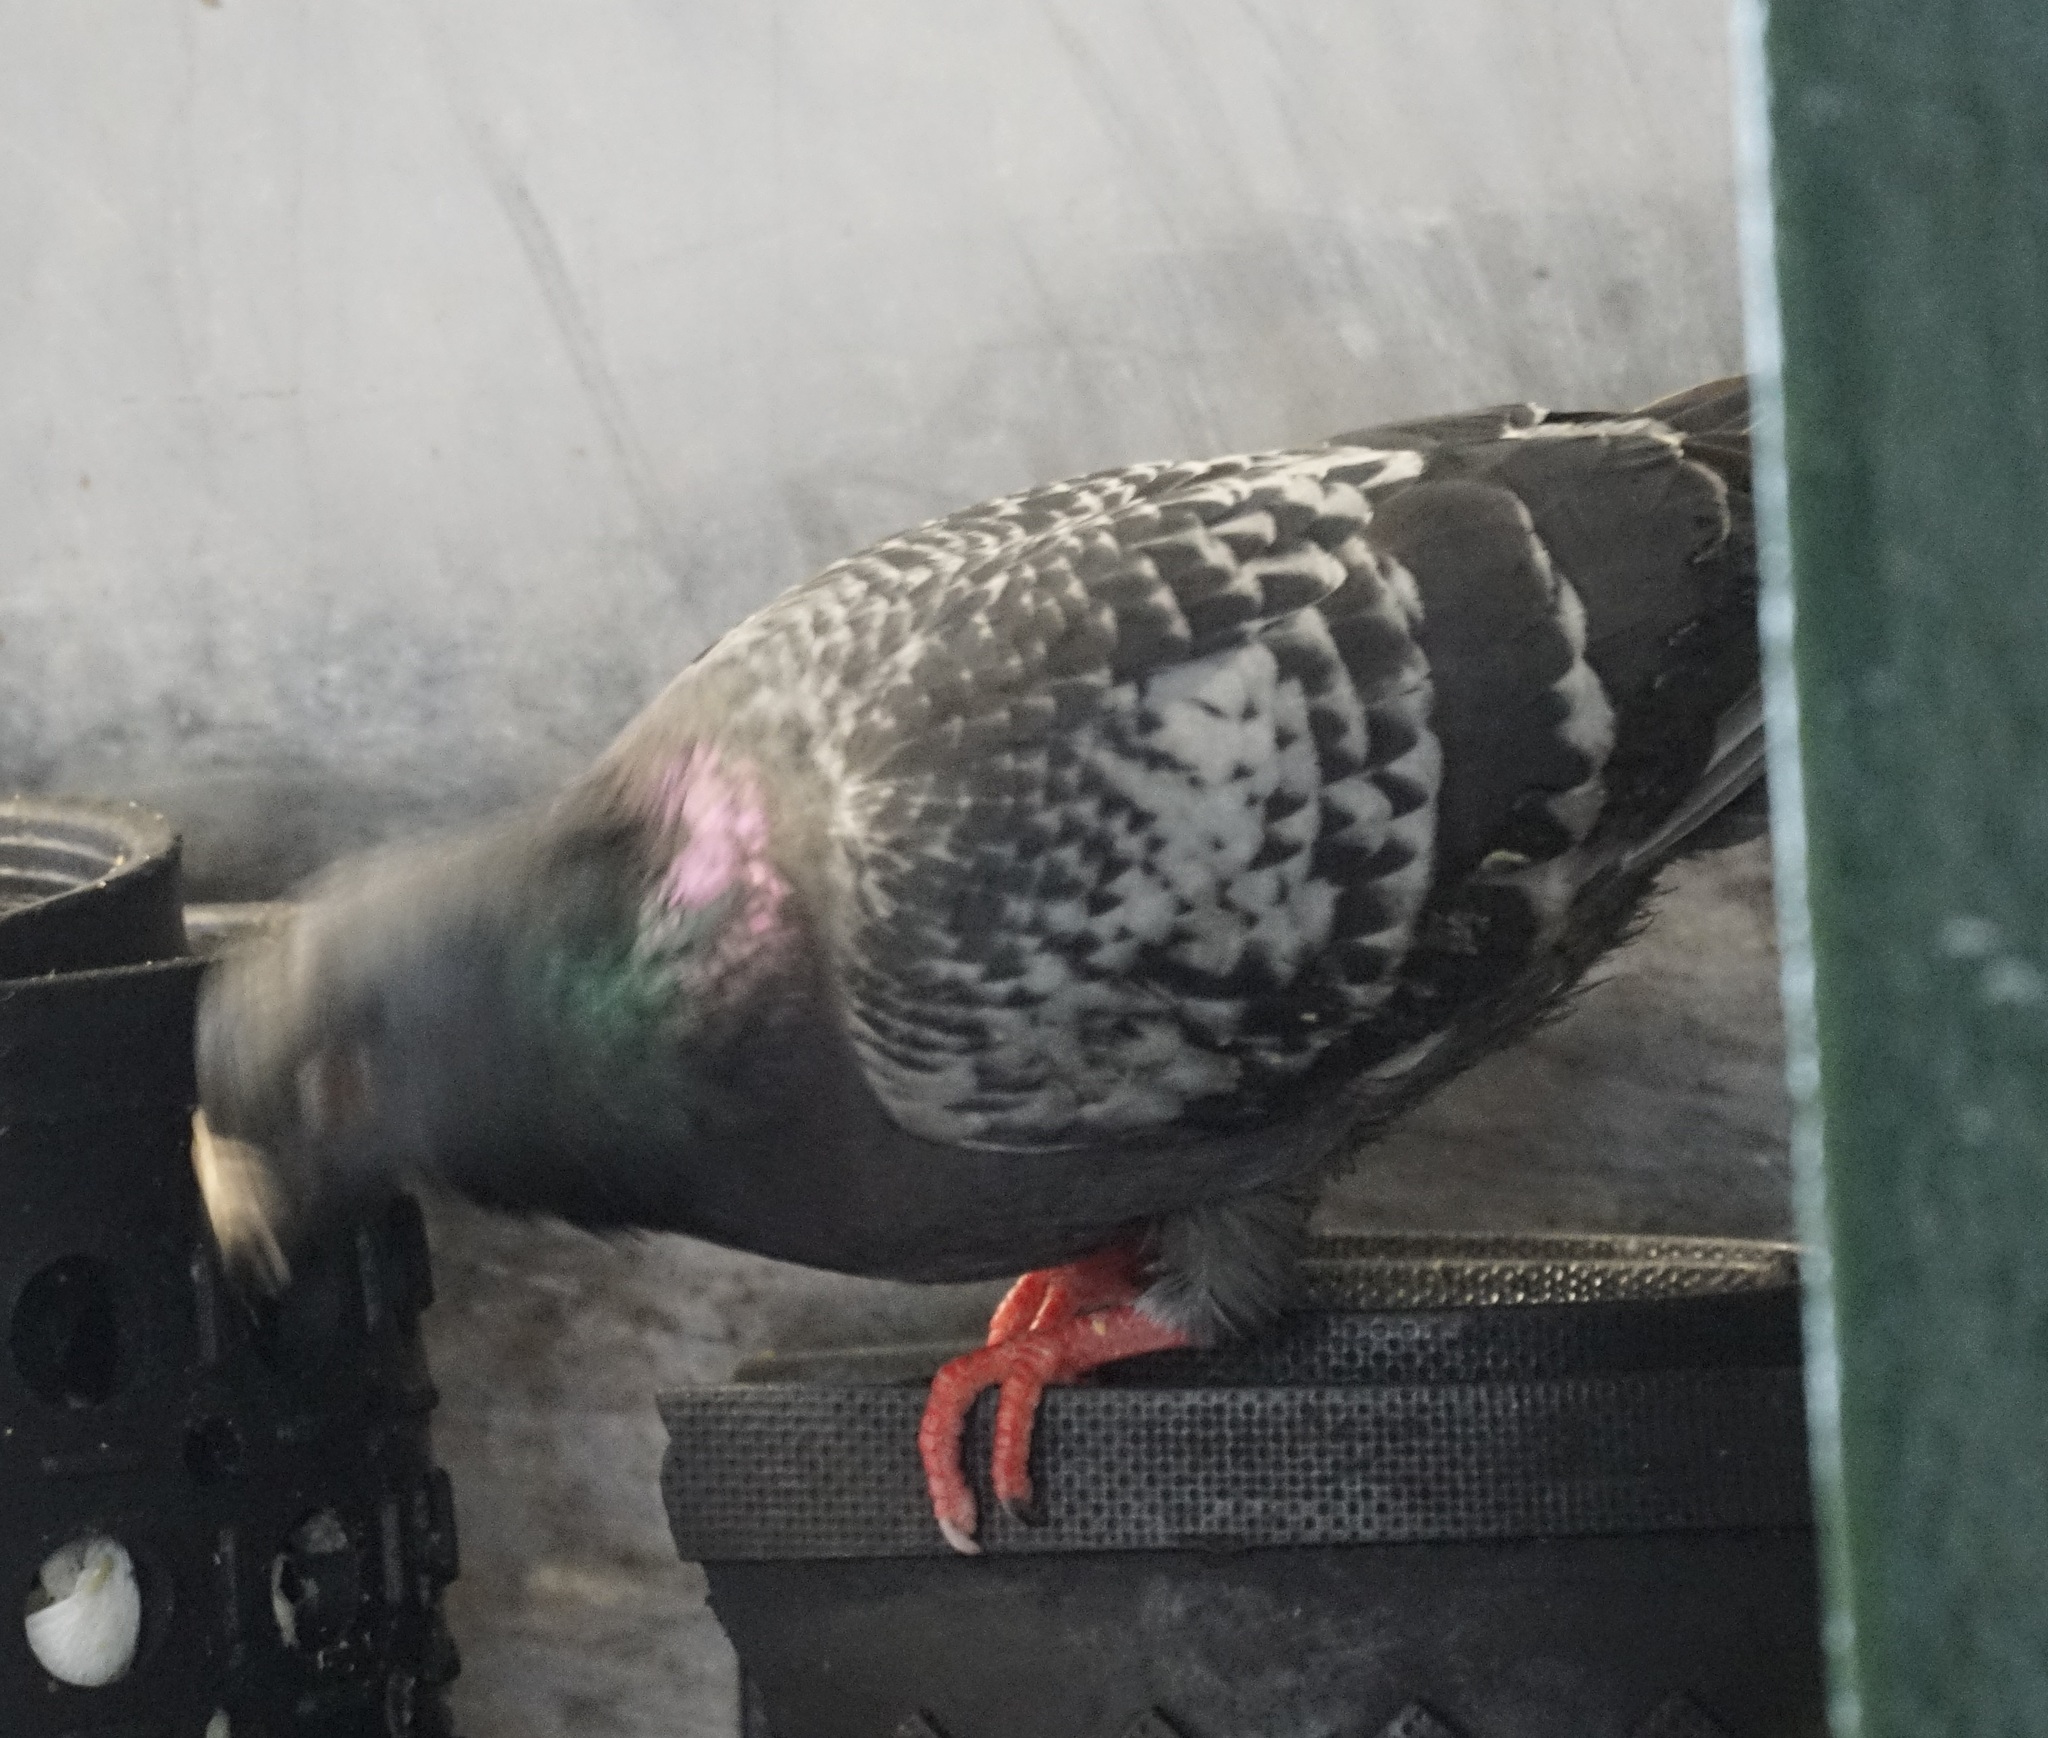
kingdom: Animalia
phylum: Chordata
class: Aves
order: Columbiformes
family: Columbidae
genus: Columba
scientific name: Columba livia
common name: Rock pigeon
